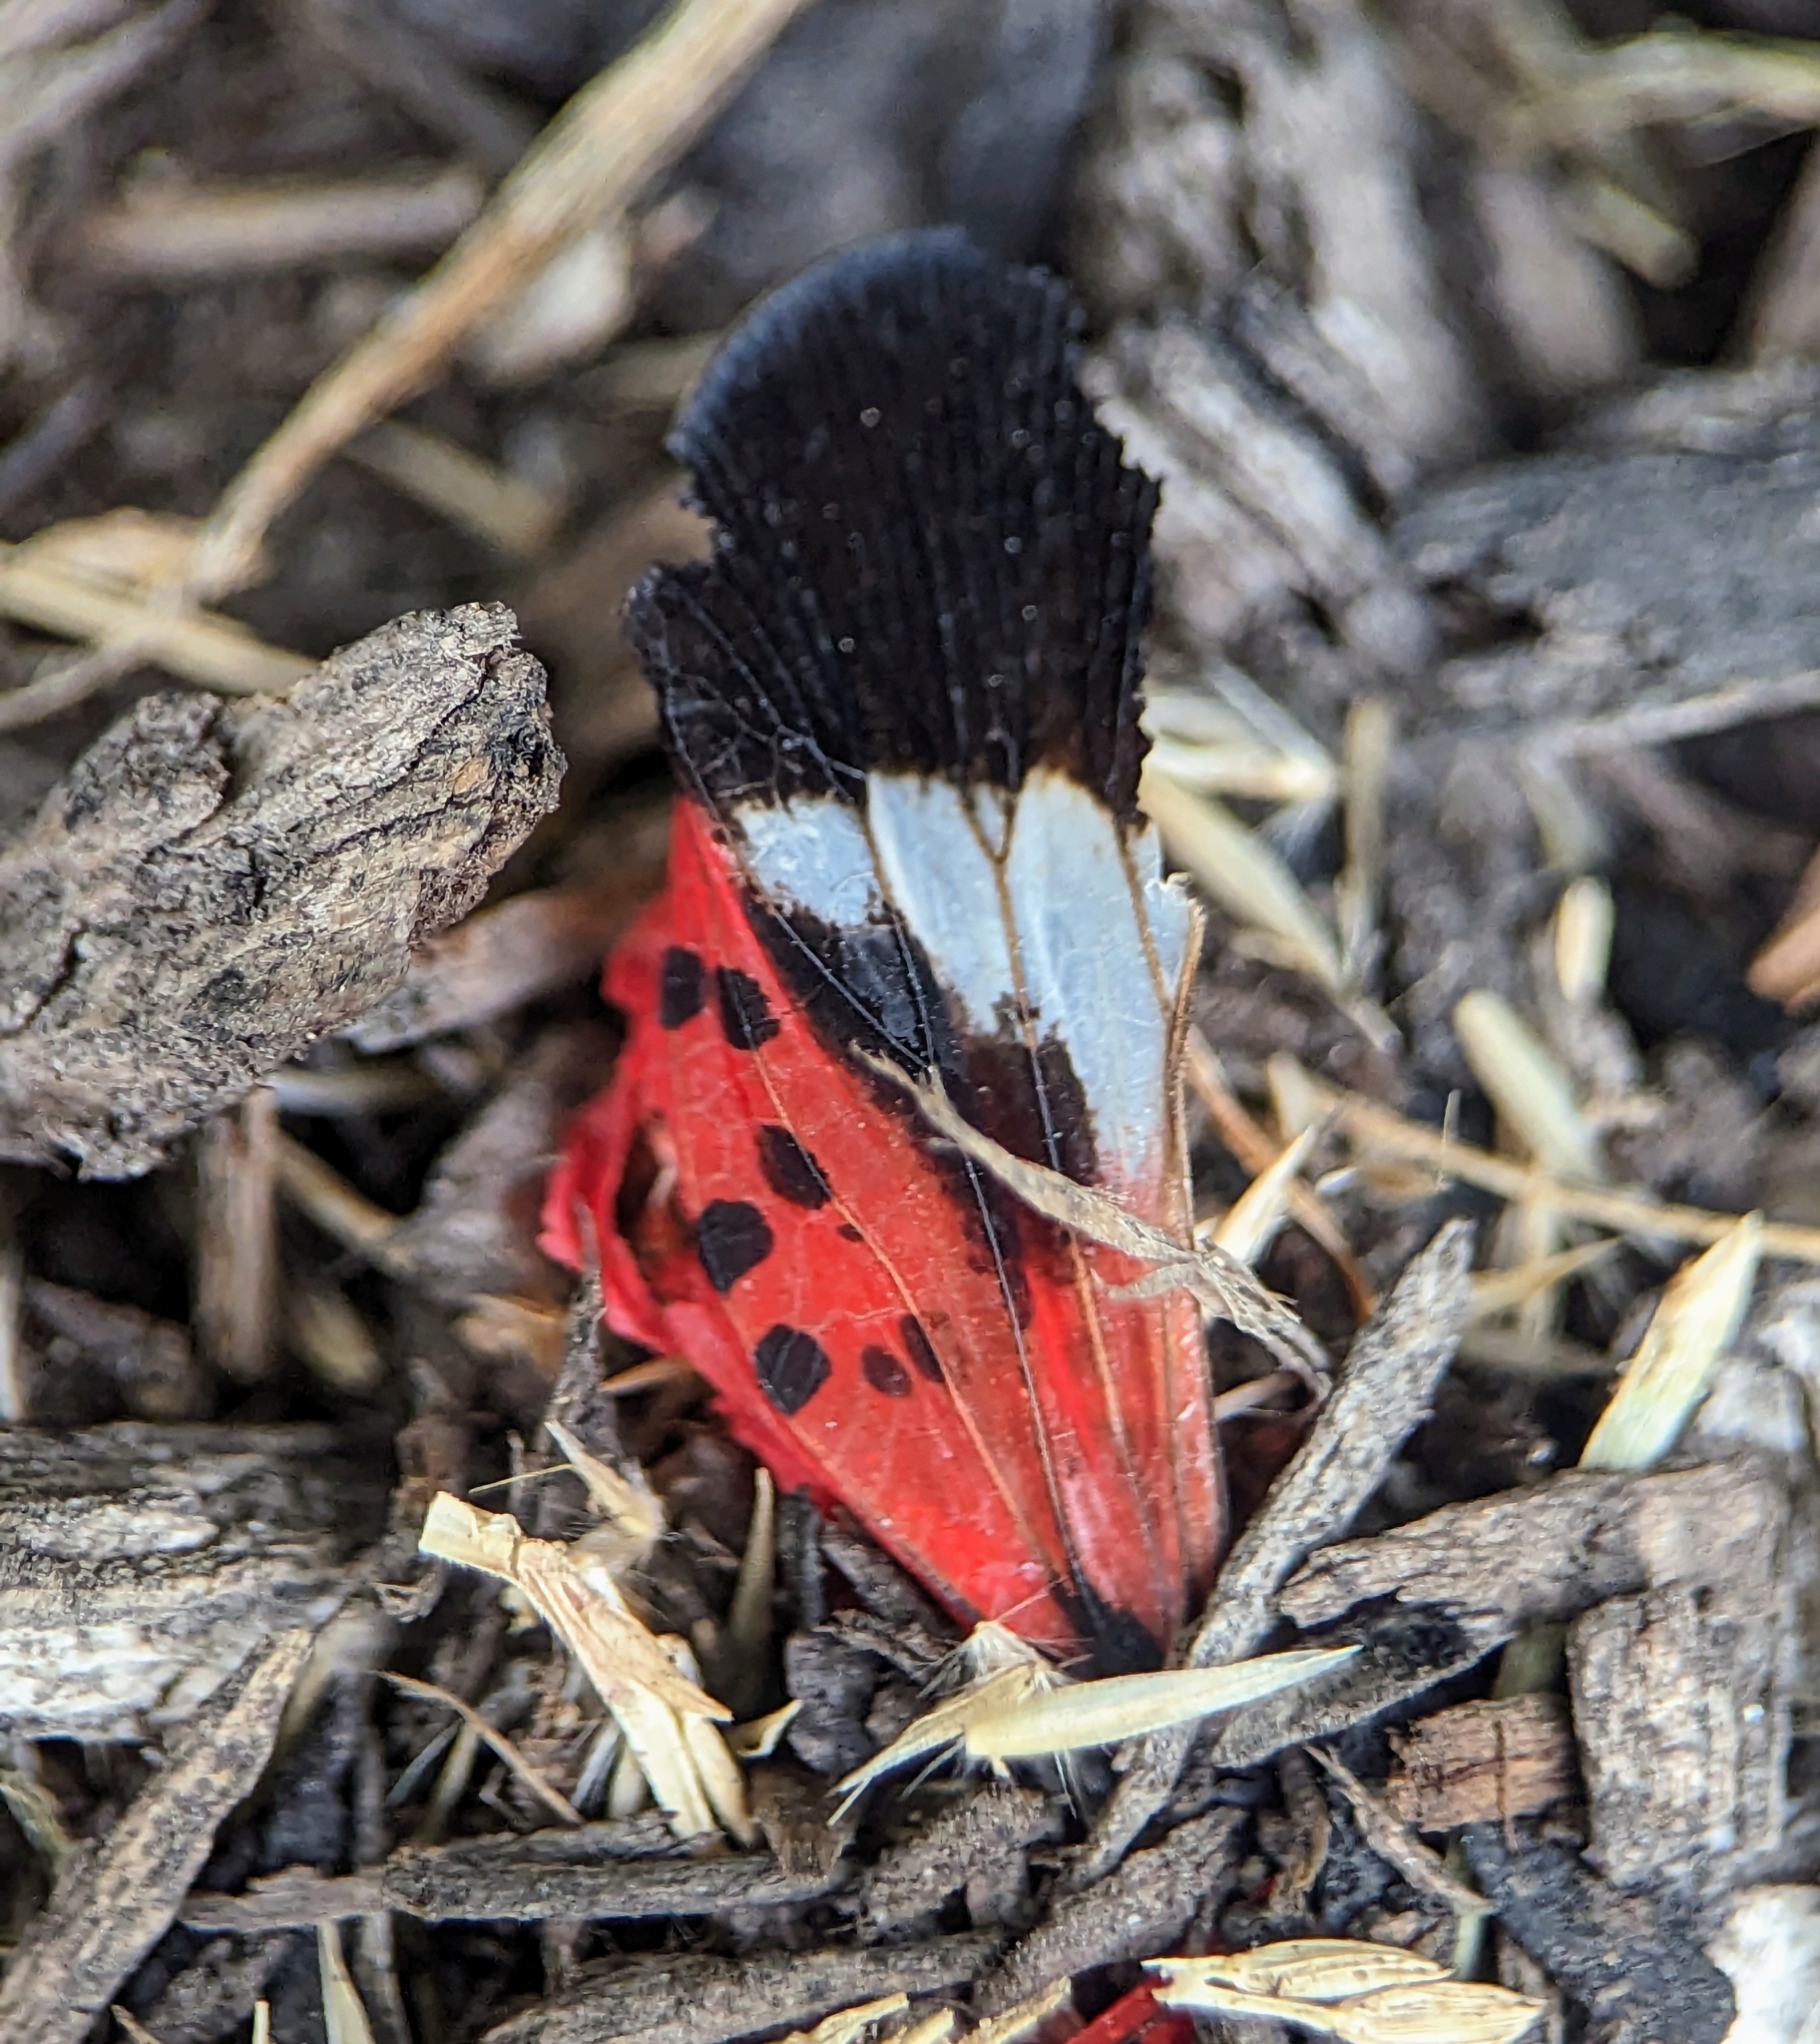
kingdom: Animalia
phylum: Arthropoda
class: Insecta
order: Hemiptera
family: Fulgoridae
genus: Lycorma
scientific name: Lycorma delicatula
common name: Spotted lanternfly
